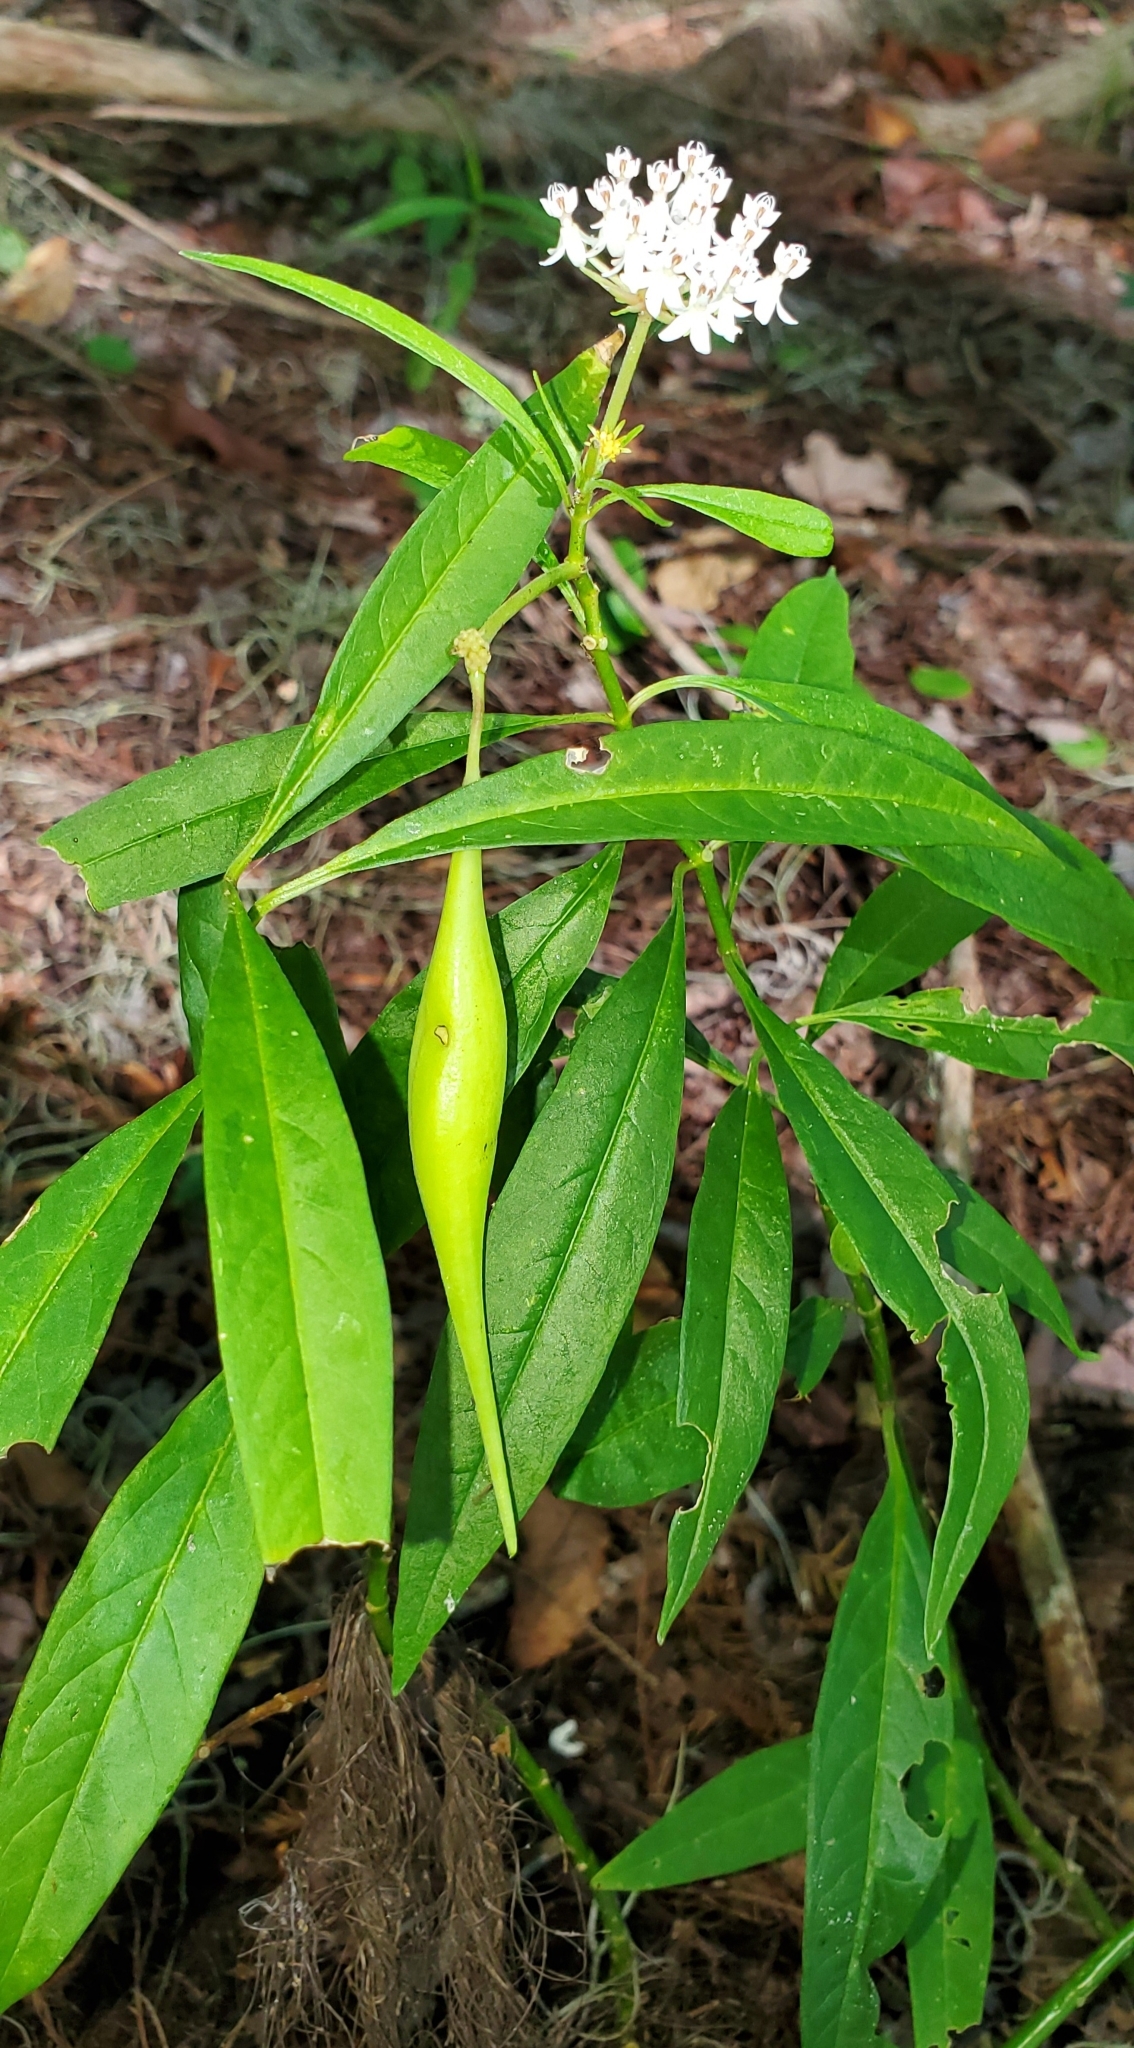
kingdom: Plantae
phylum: Tracheophyta
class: Magnoliopsida
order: Gentianales
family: Apocynaceae
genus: Asclepias
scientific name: Asclepias perennis
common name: Smooth-seed milkweed
